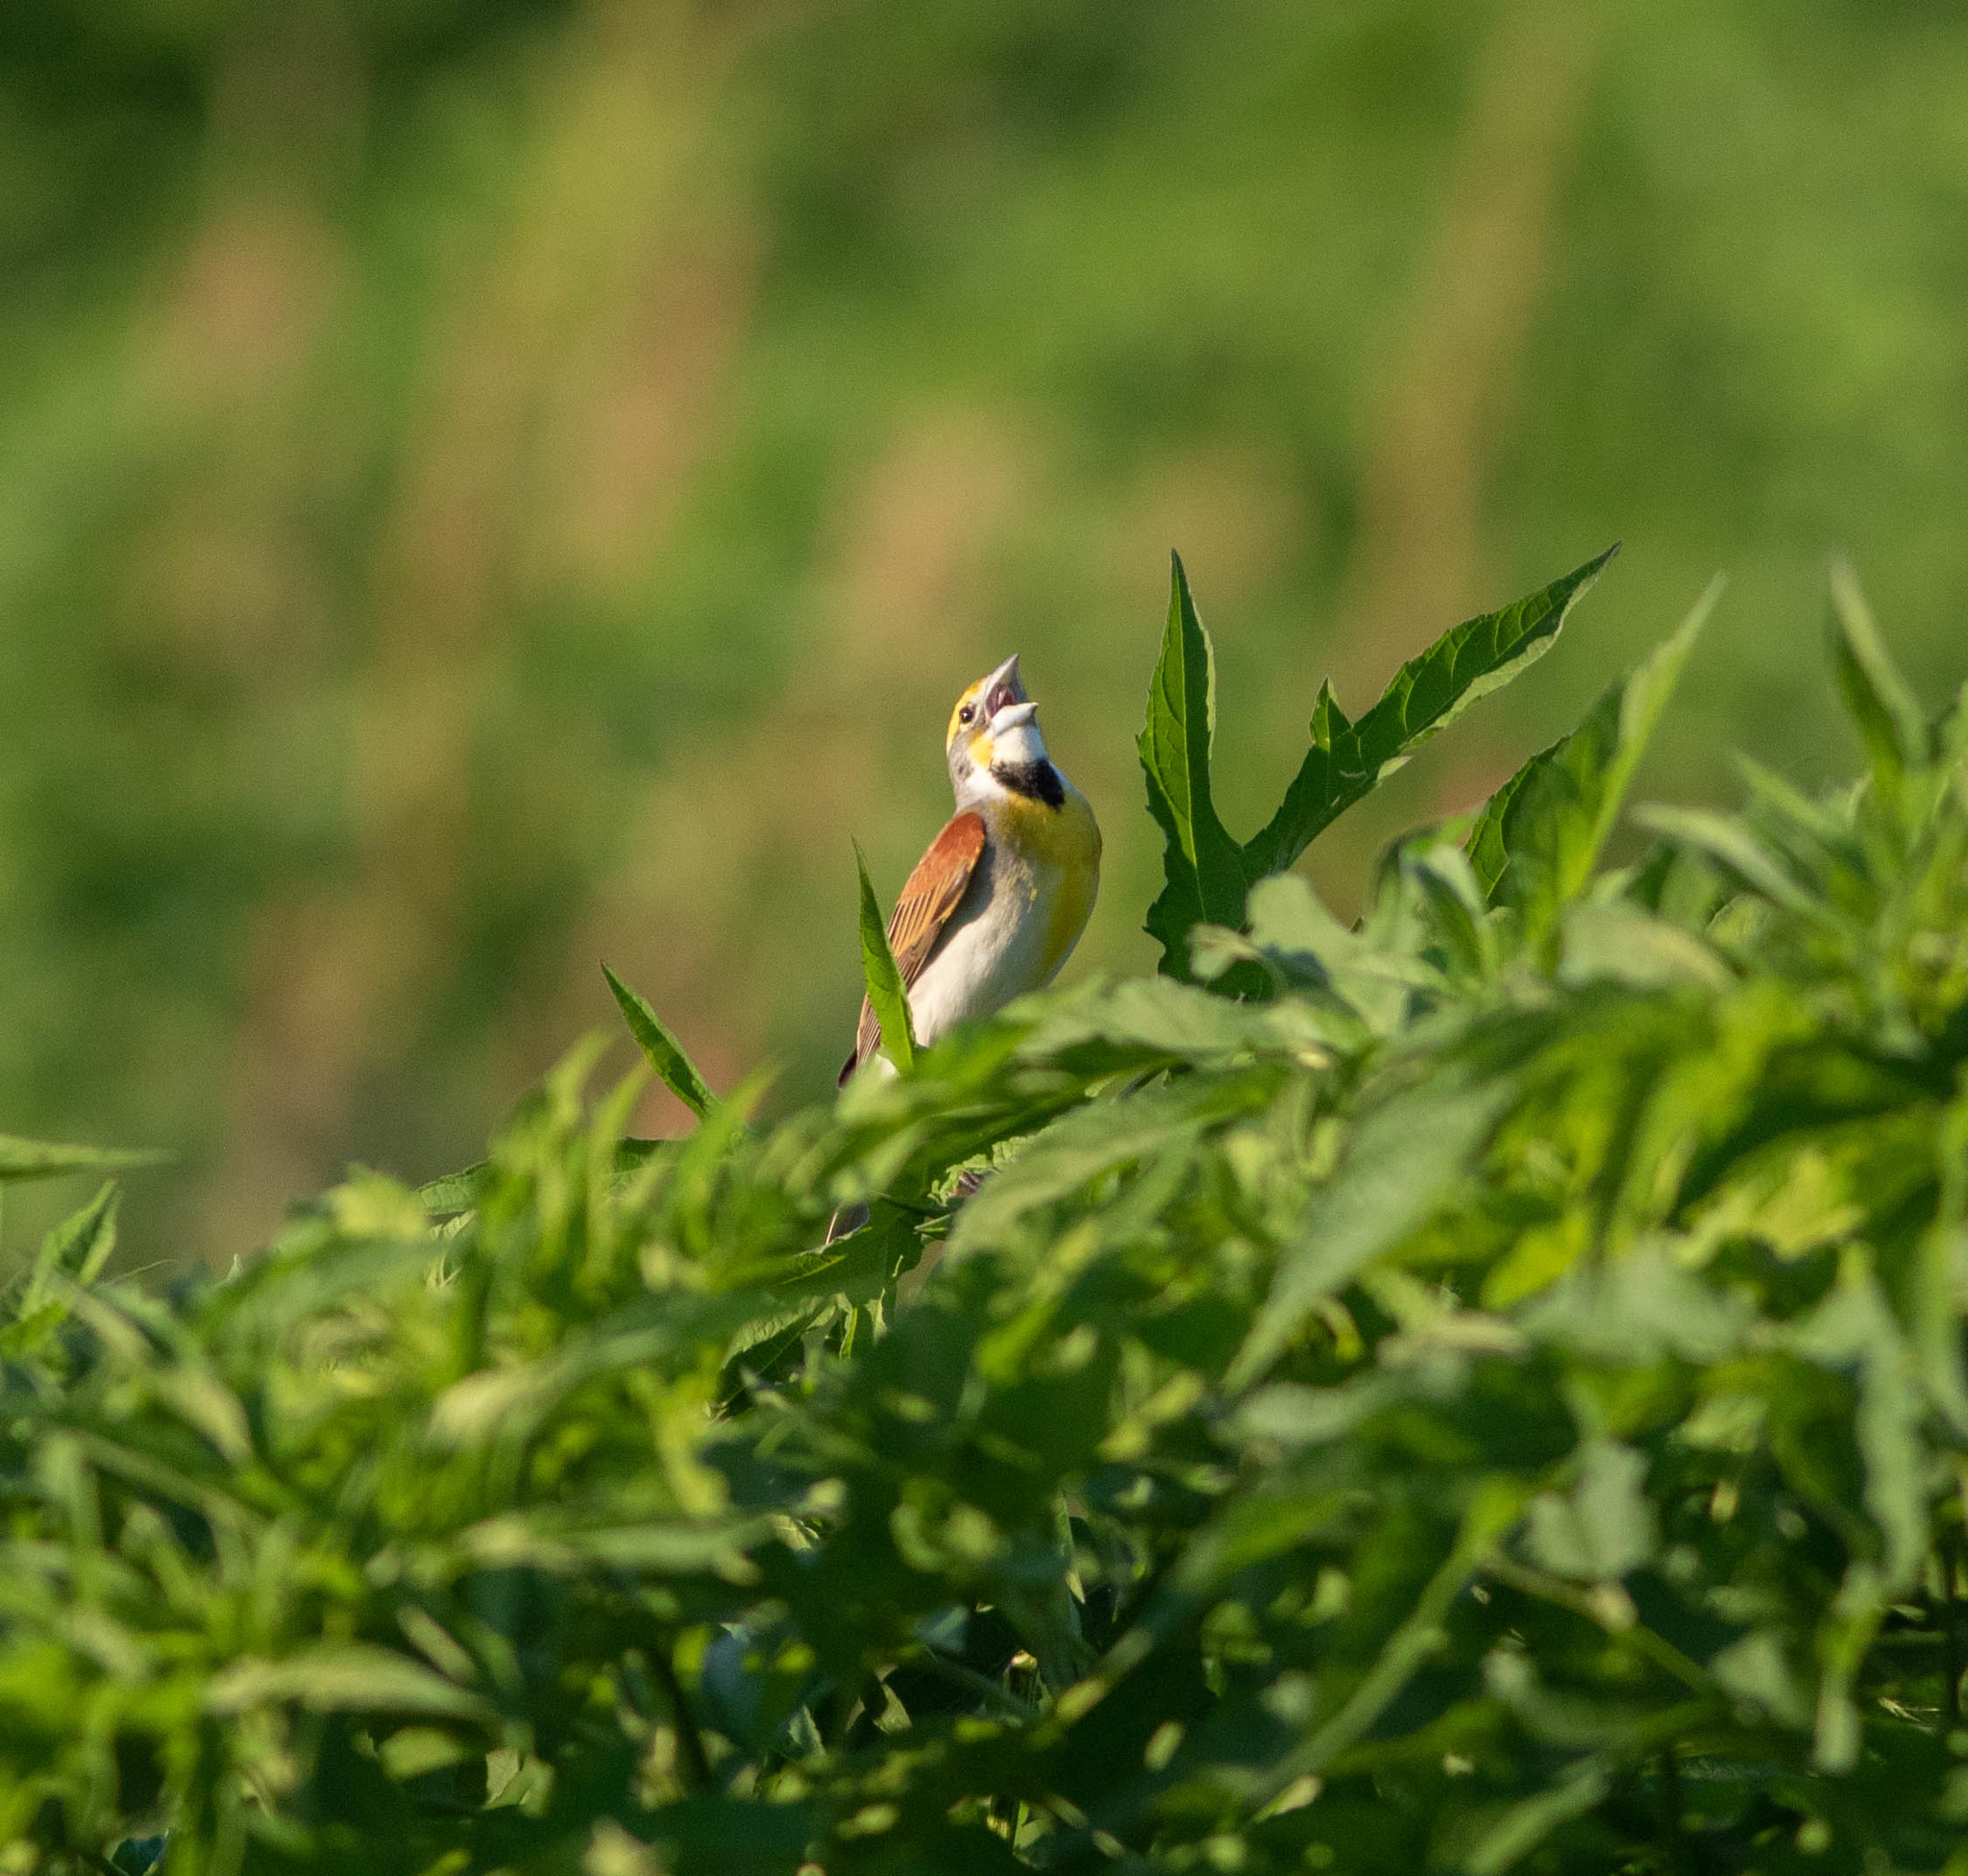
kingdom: Animalia
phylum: Chordata
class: Aves
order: Passeriformes
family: Cardinalidae
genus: Spiza
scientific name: Spiza americana
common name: Dickcissel
